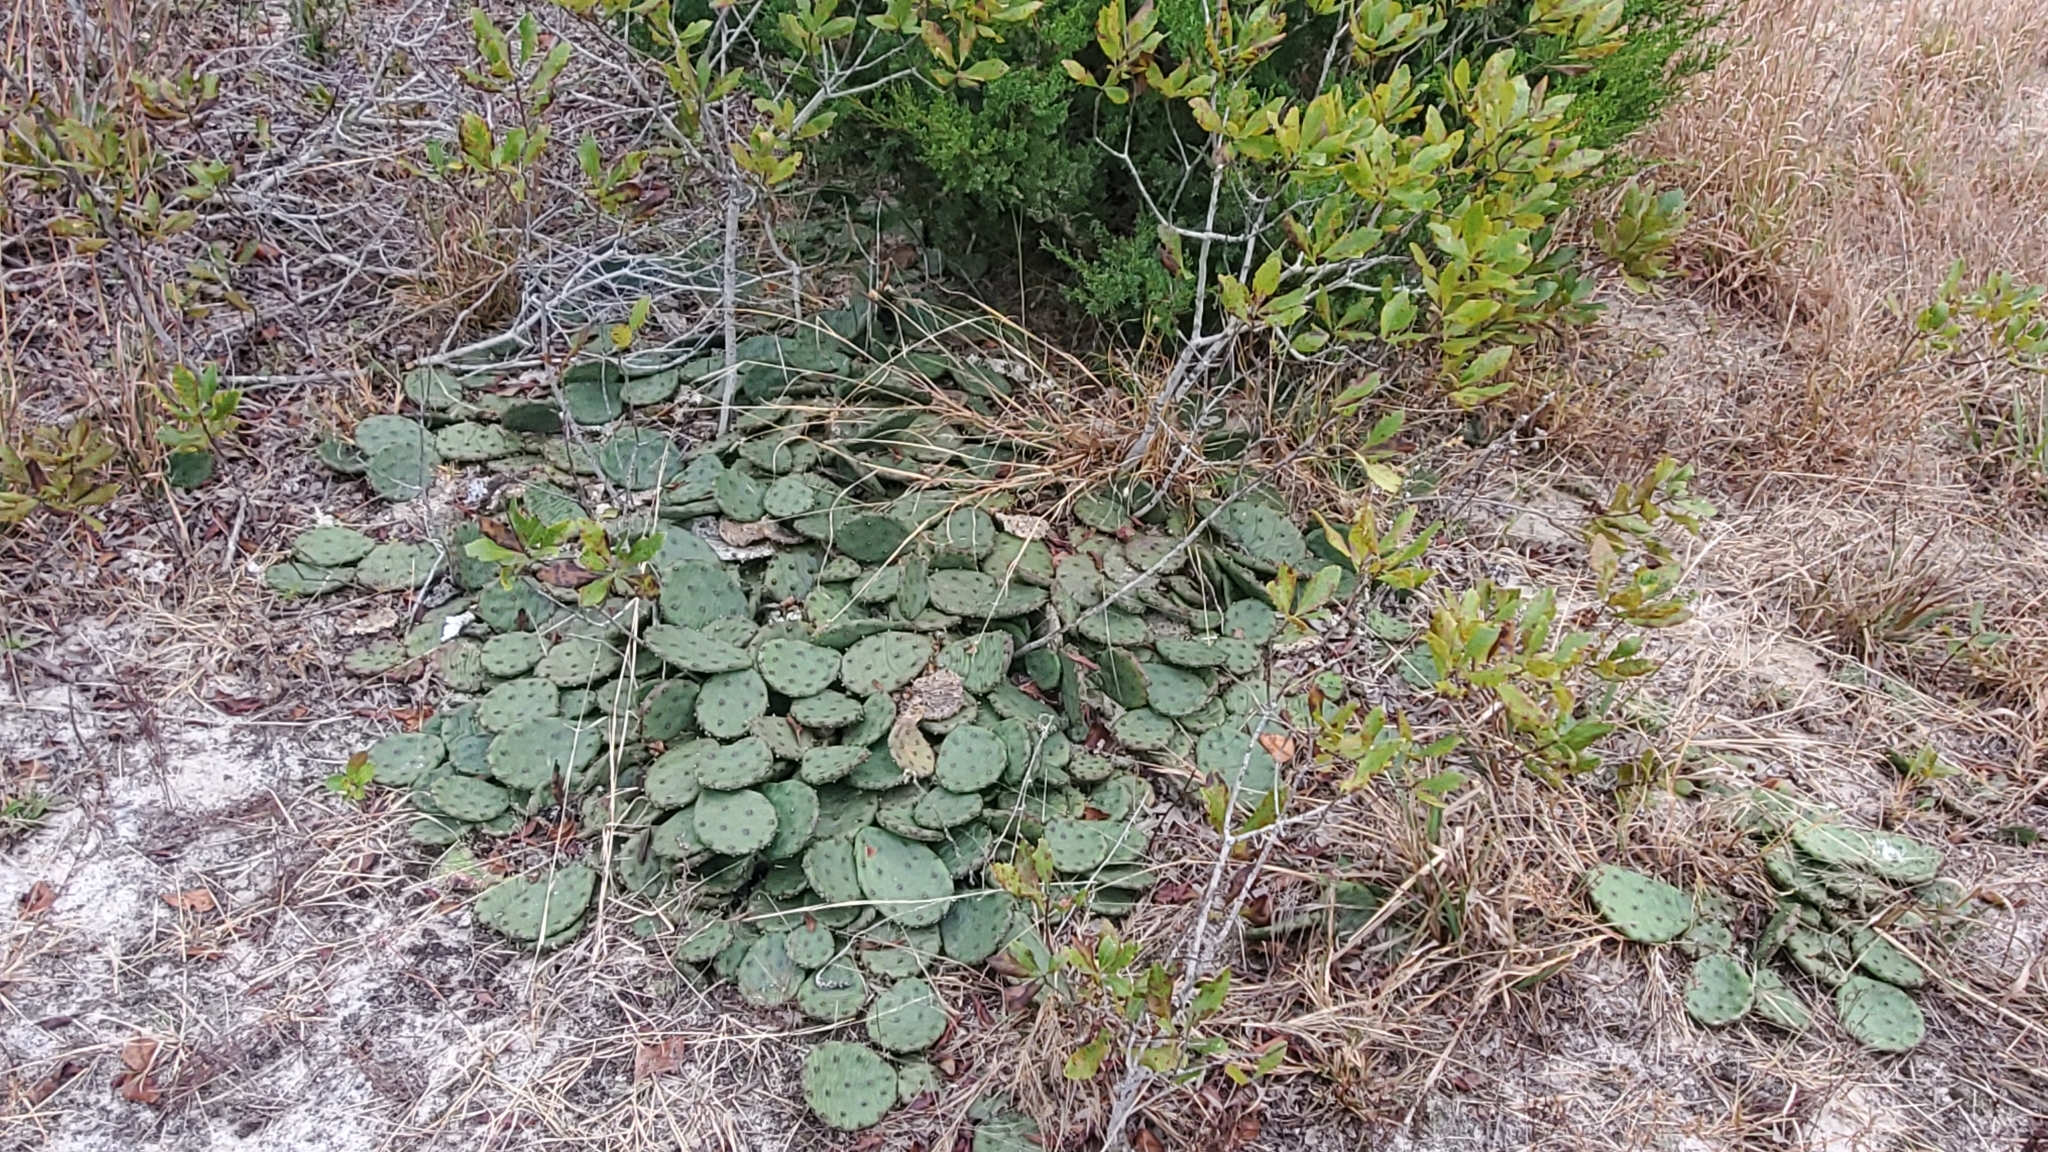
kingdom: Plantae
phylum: Tracheophyta
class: Magnoliopsida
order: Caryophyllales
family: Cactaceae
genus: Opuntia
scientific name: Opuntia humifusa
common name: Eastern prickly-pear
